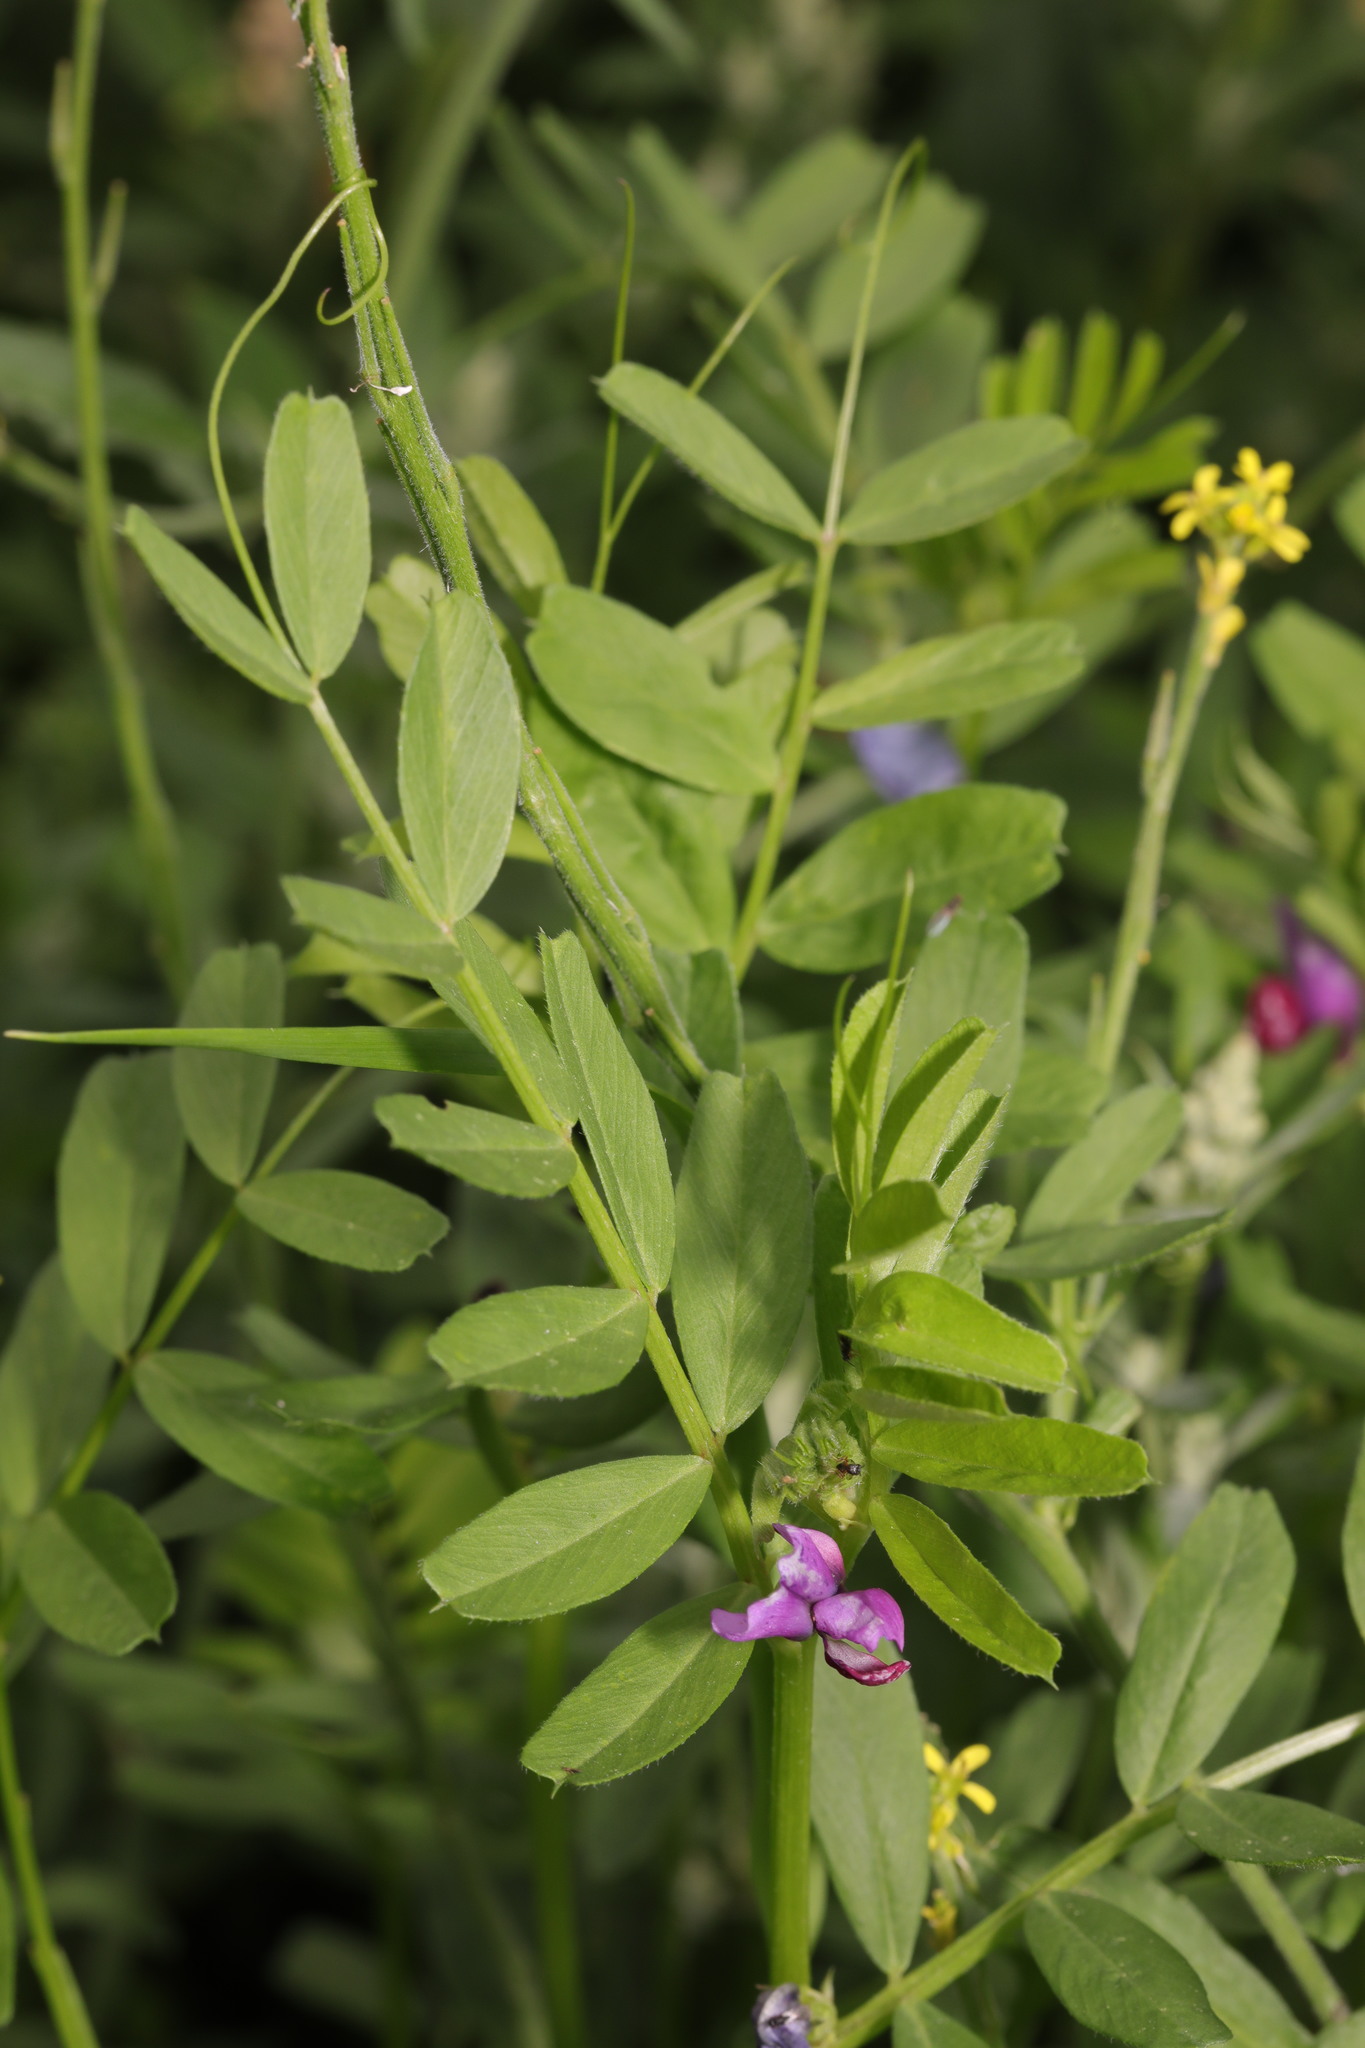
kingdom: Plantae
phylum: Tracheophyta
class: Magnoliopsida
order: Fabales
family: Fabaceae
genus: Vicia
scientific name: Vicia sativa
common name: Garden vetch
